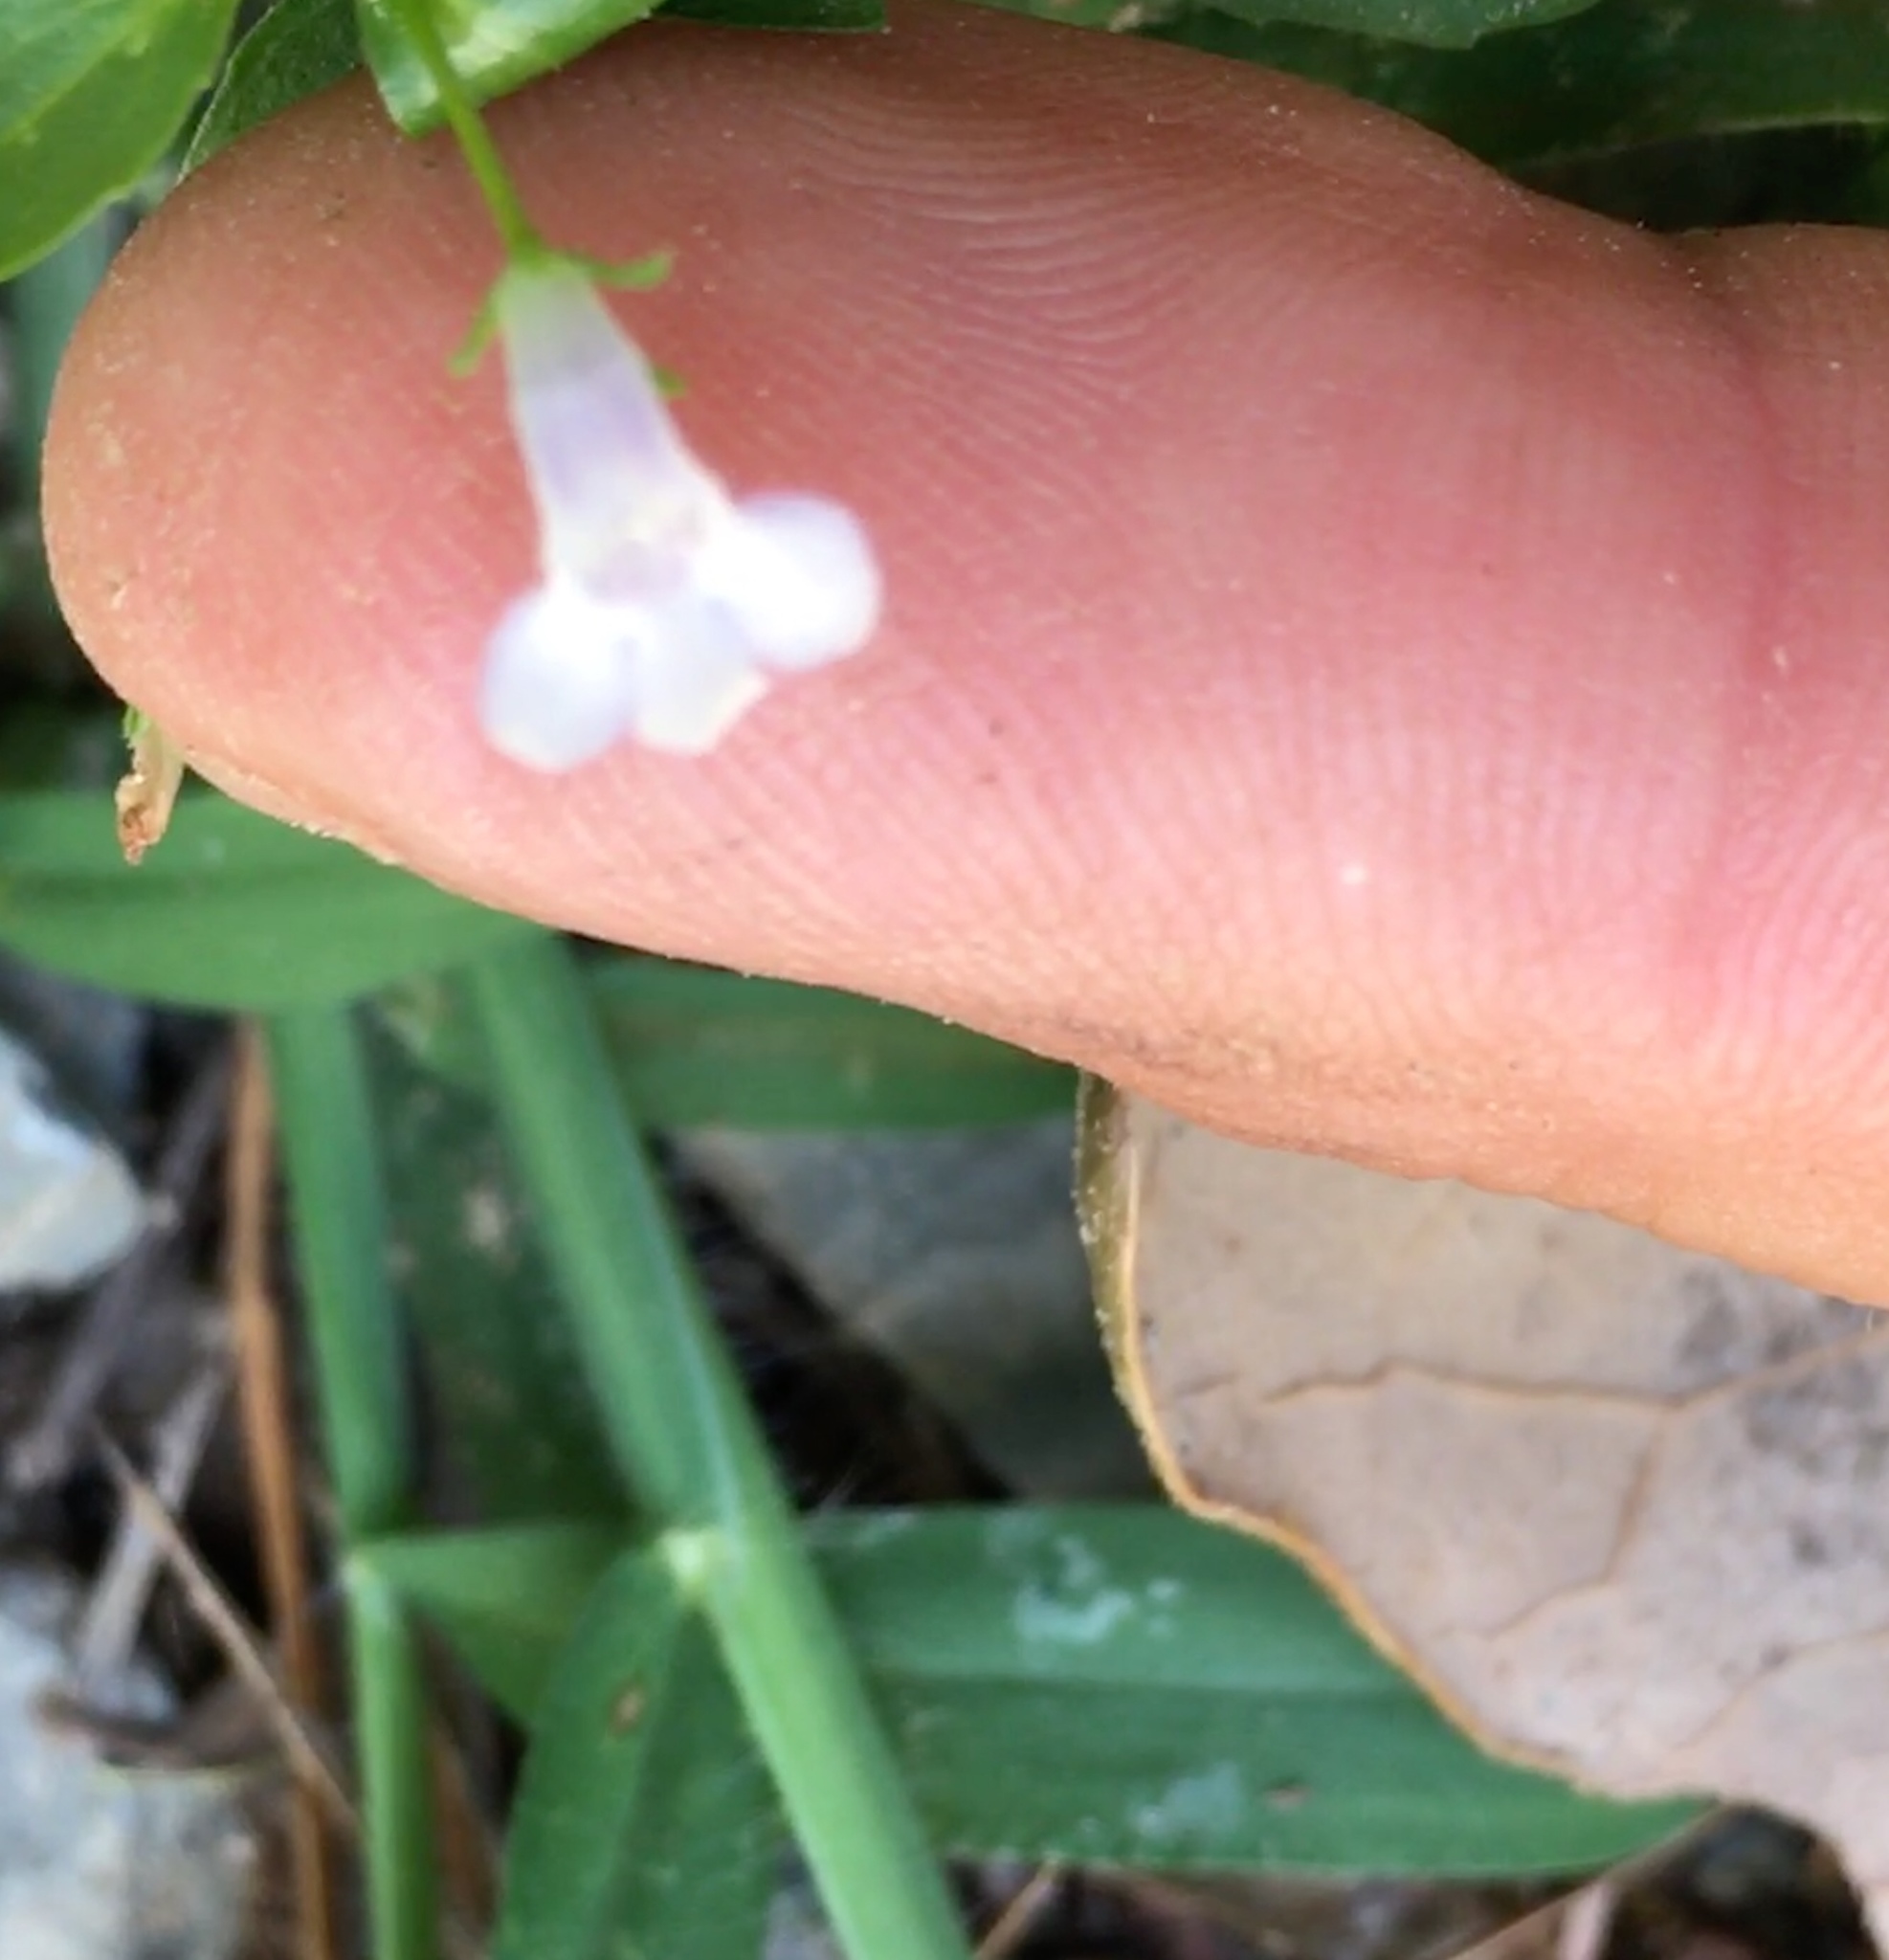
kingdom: Plantae
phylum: Tracheophyta
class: Magnoliopsida
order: Lamiales
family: Linderniaceae
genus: Lindernia
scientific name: Lindernia dubia
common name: Annual false pimpernel
